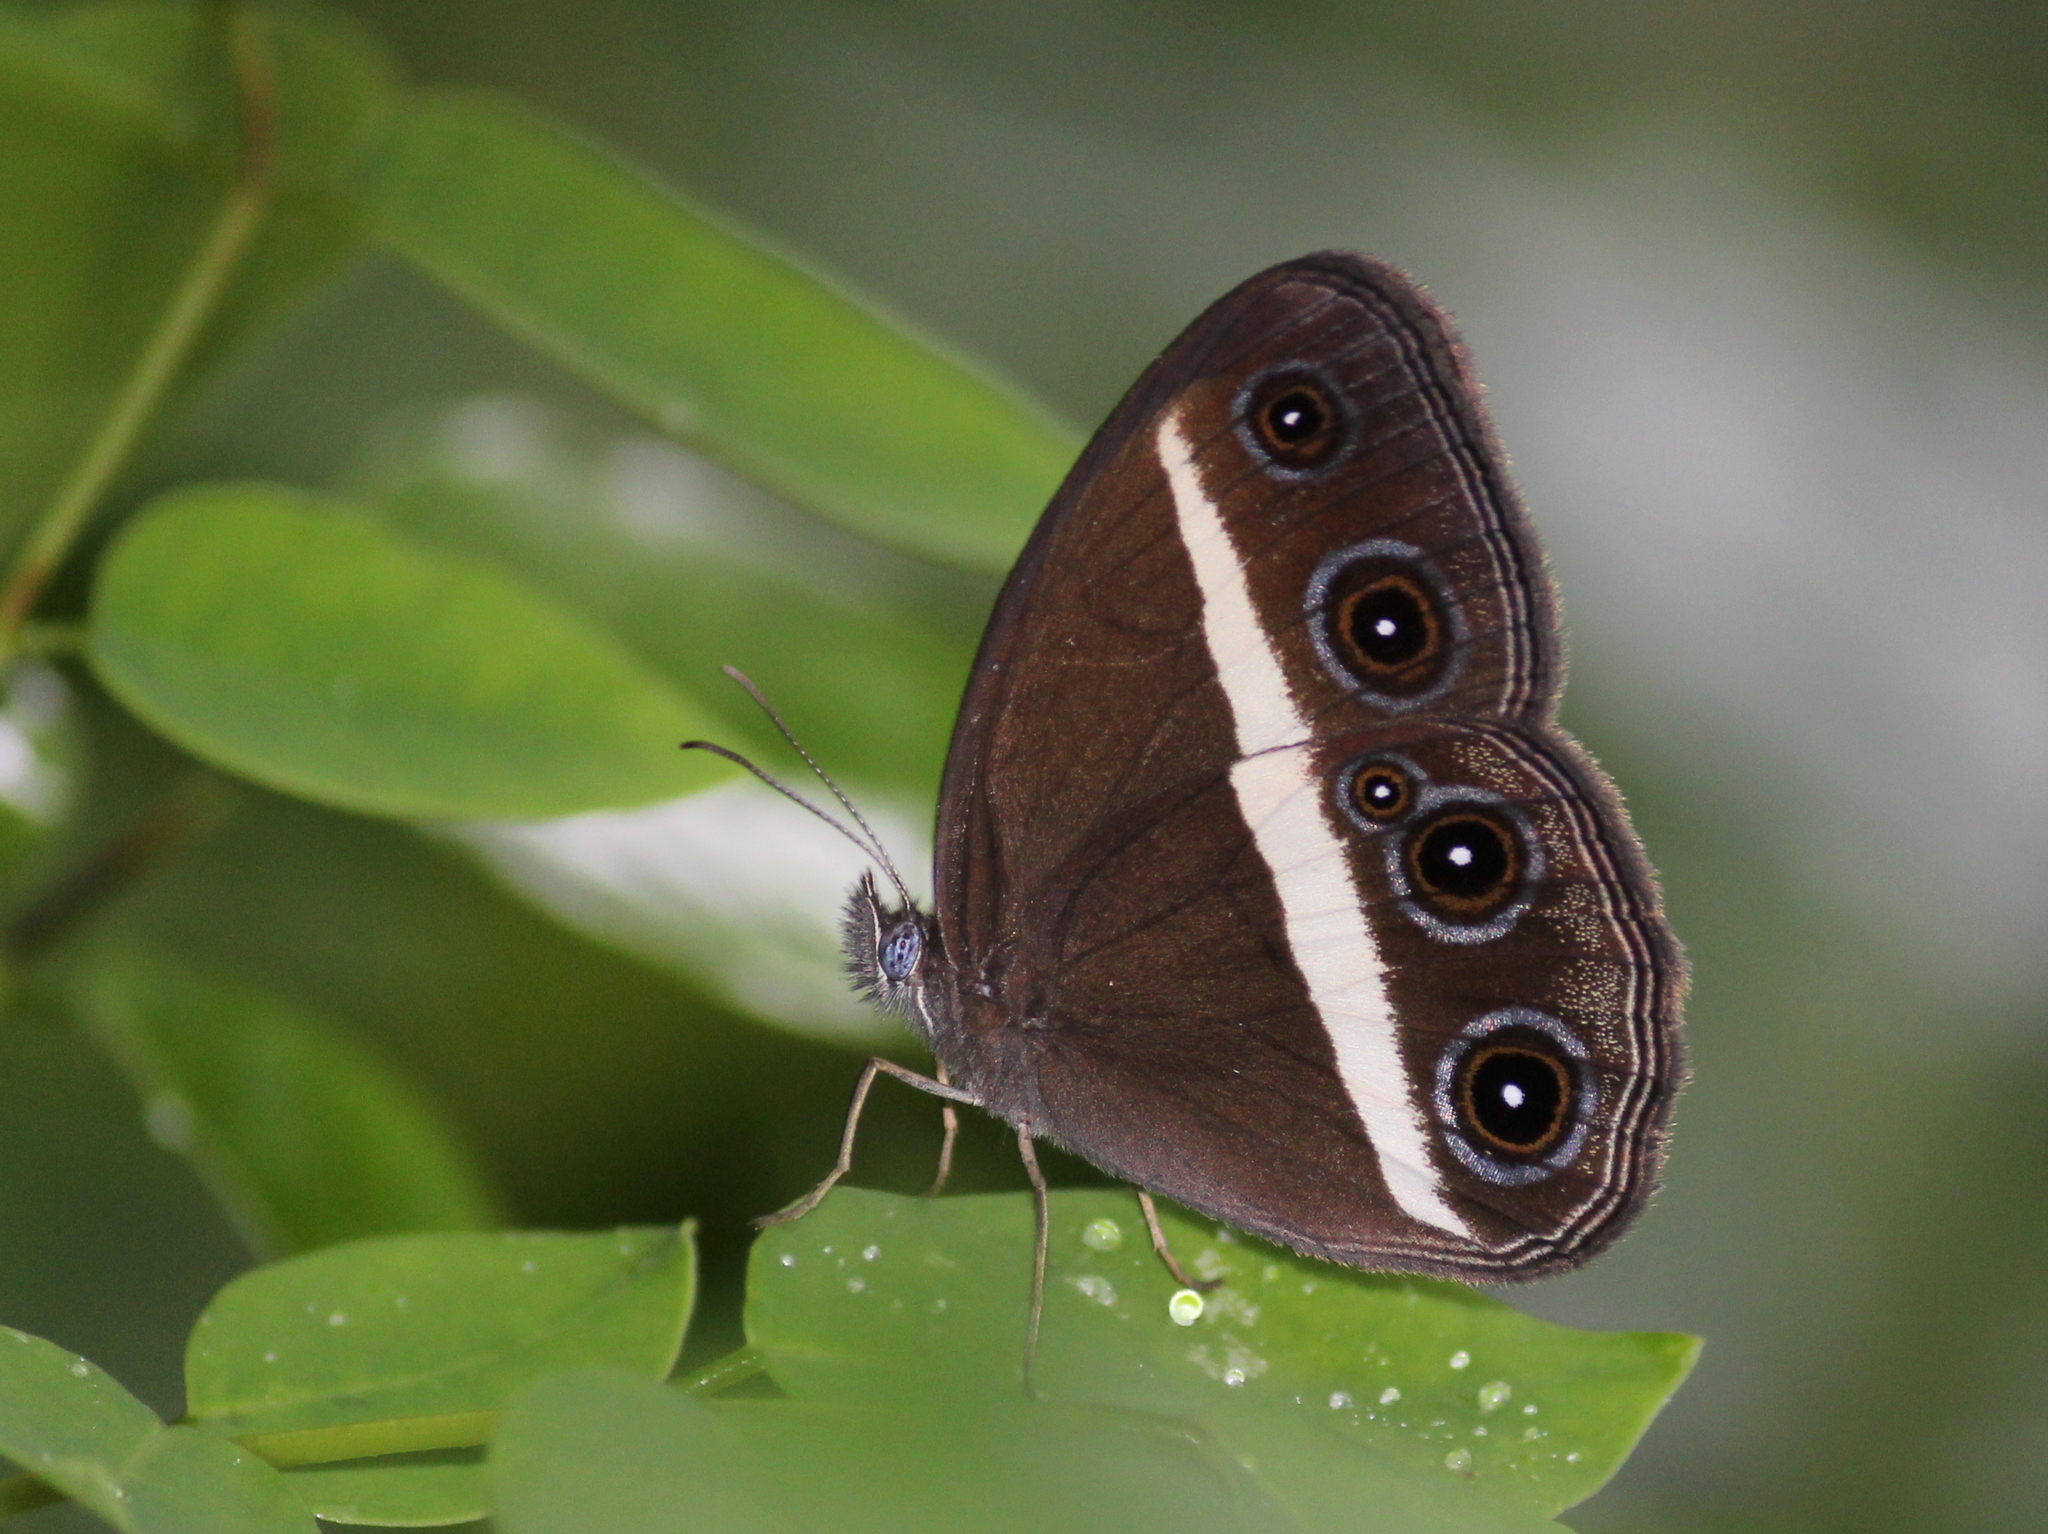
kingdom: Animalia
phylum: Arthropoda
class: Insecta
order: Lepidoptera
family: Nymphalidae
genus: Orsotriaena
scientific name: Orsotriaena medus
